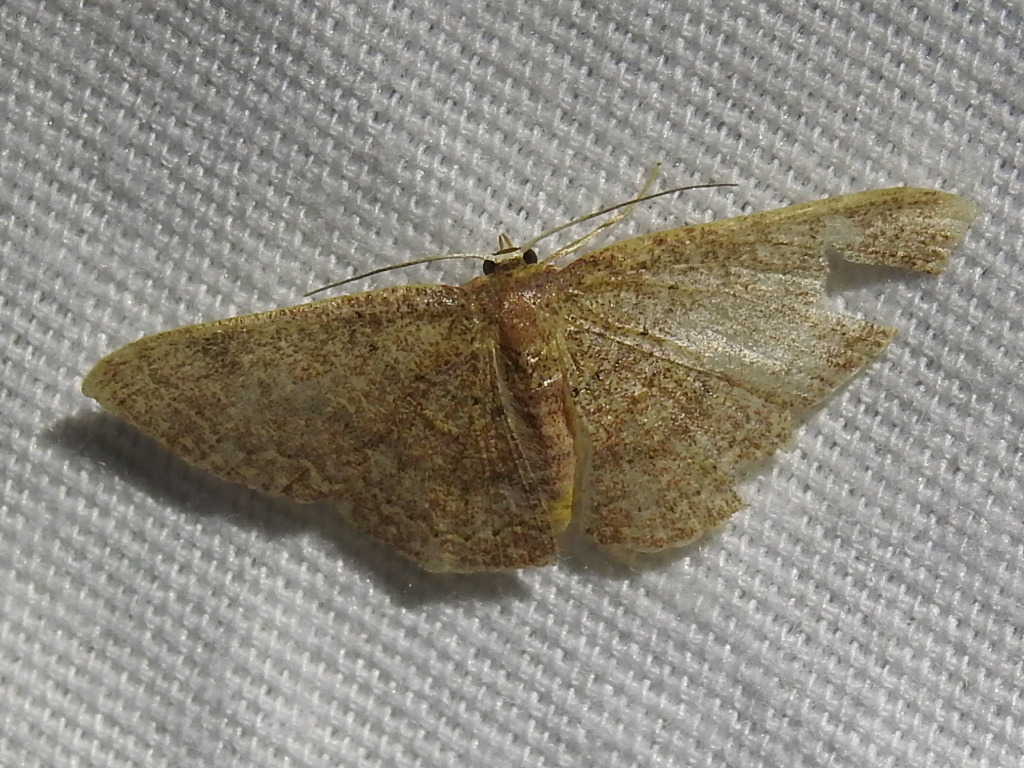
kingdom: Animalia
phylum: Arthropoda
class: Insecta
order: Lepidoptera
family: Geometridae
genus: Pleuroprucha
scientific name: Pleuroprucha insulsaria
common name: Common tan wave
